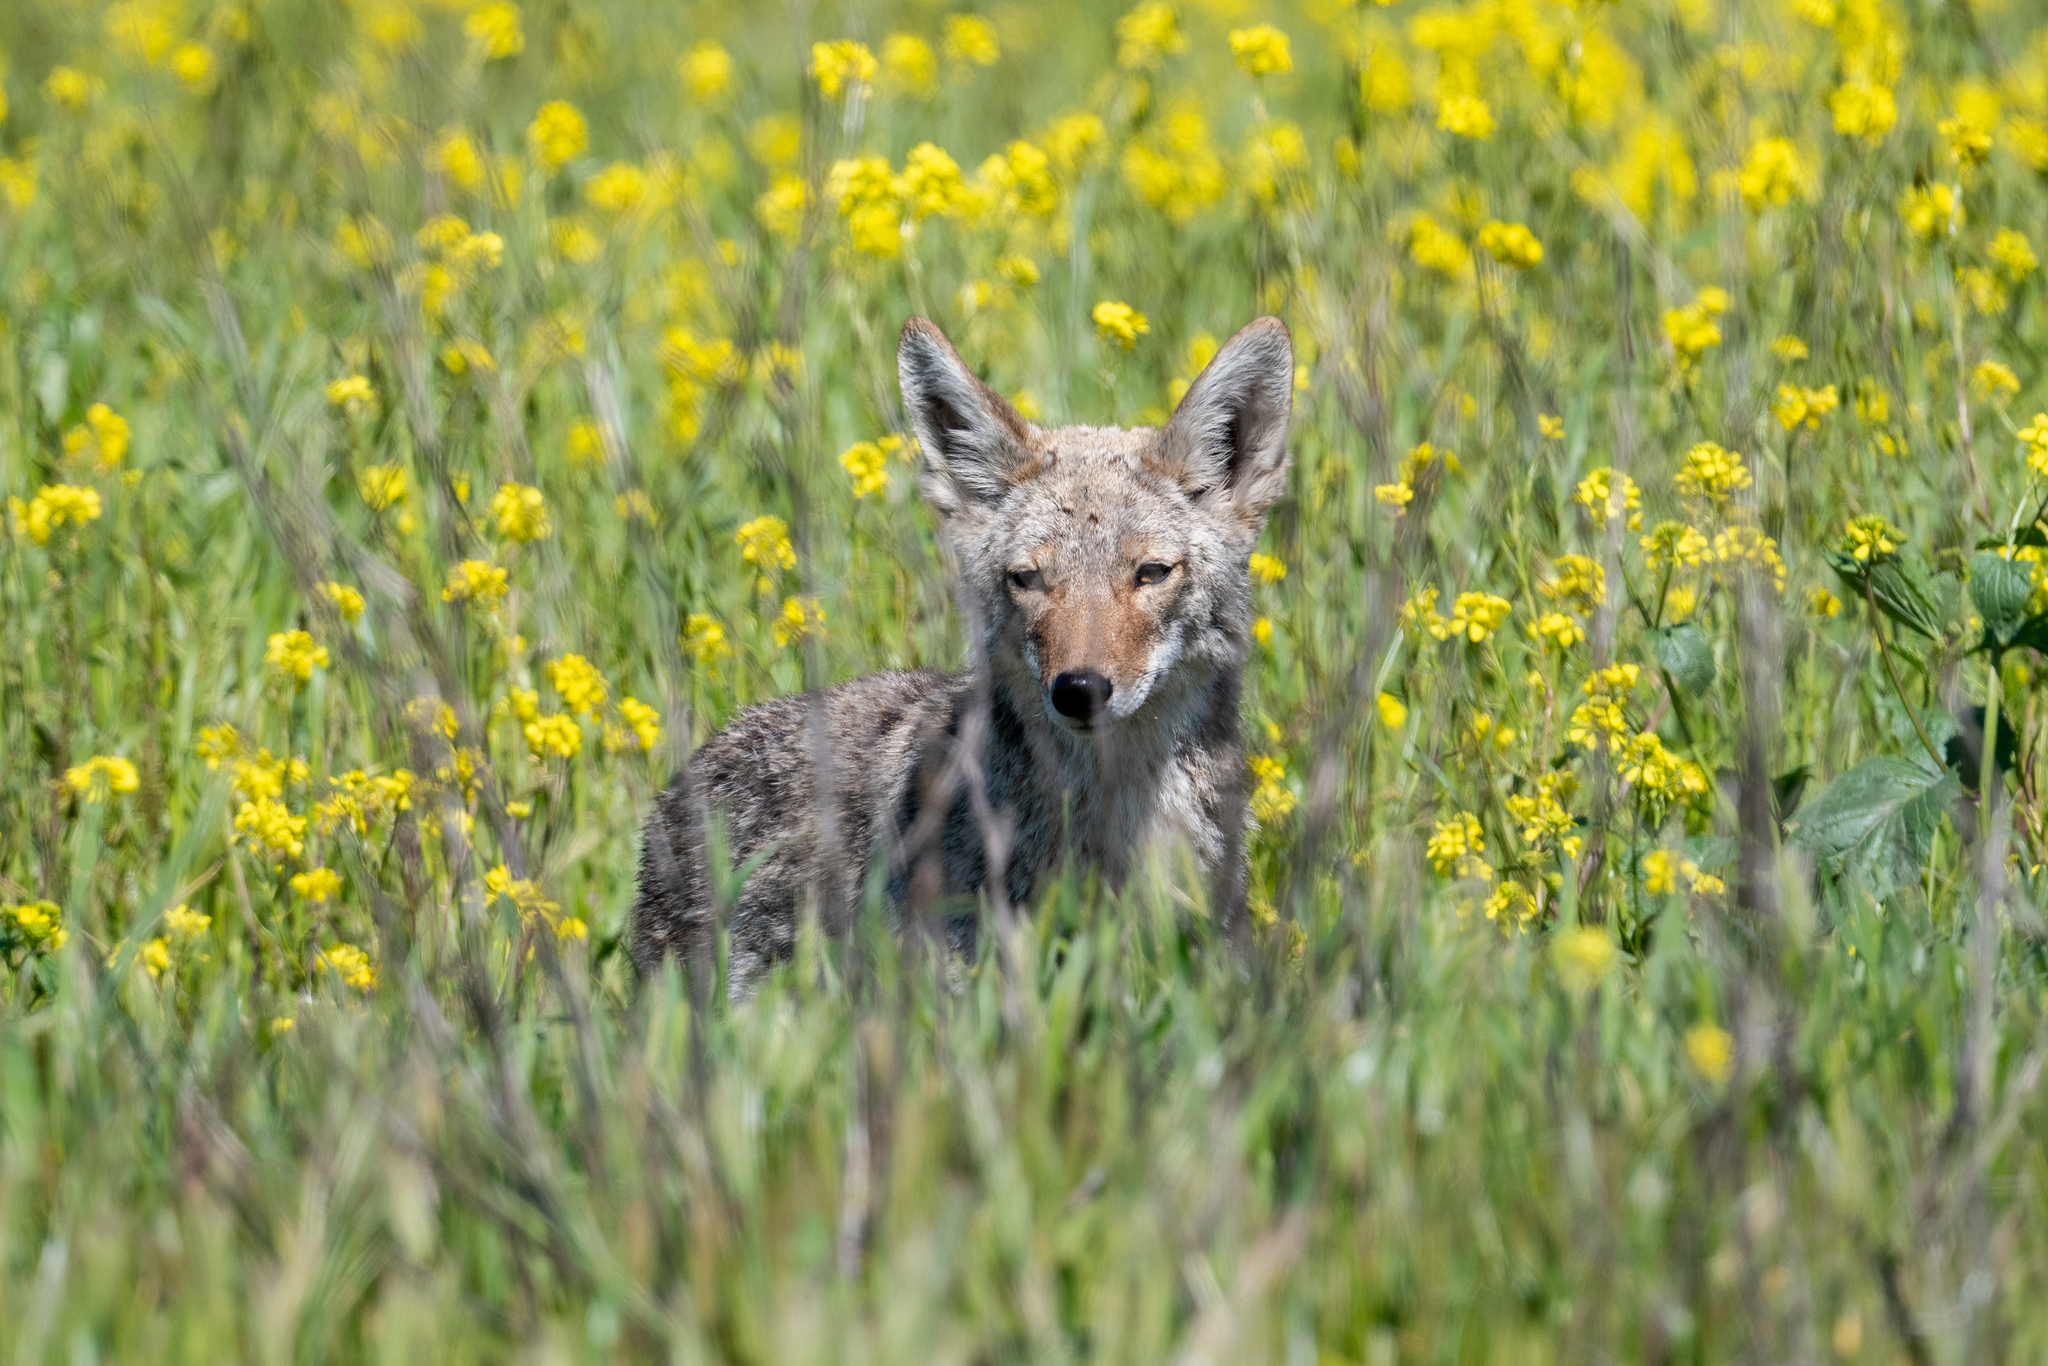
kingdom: Animalia
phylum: Chordata
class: Mammalia
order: Carnivora
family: Canidae
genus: Canis
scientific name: Canis latrans
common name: Coyote
